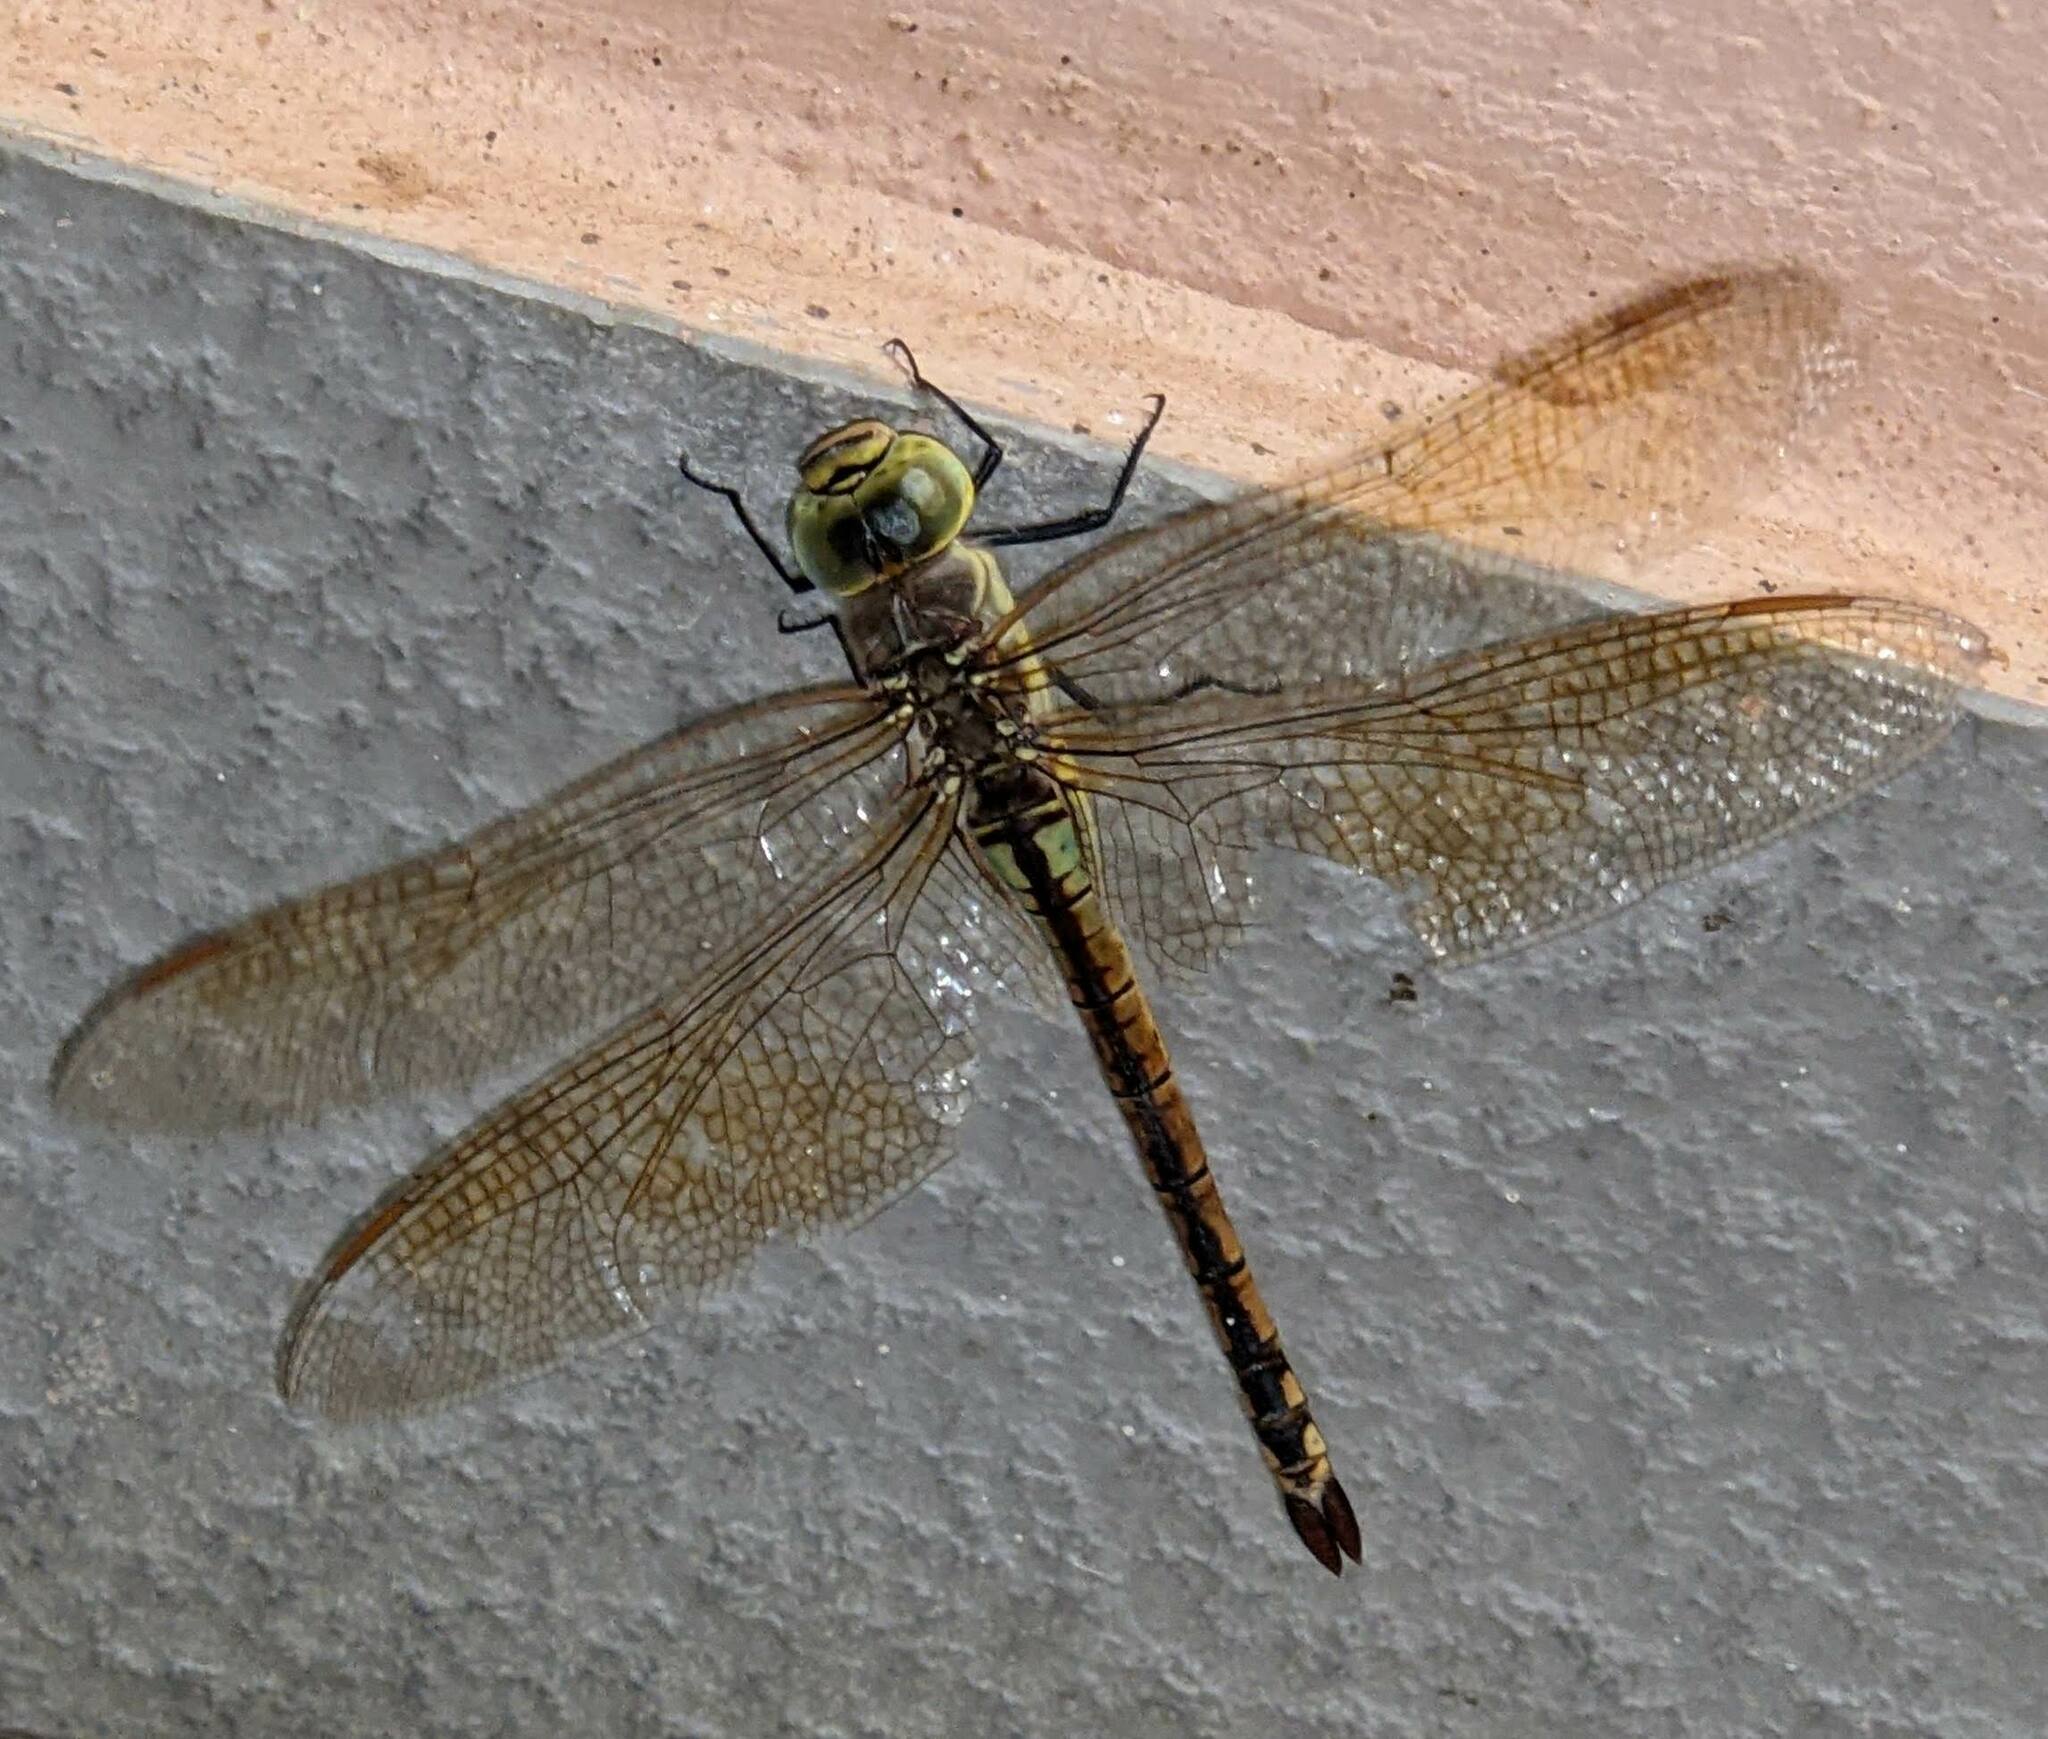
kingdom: Animalia
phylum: Arthropoda
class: Insecta
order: Odonata
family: Aeshnidae
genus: Anax
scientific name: Anax ephippiger
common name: Vagrant emperor
